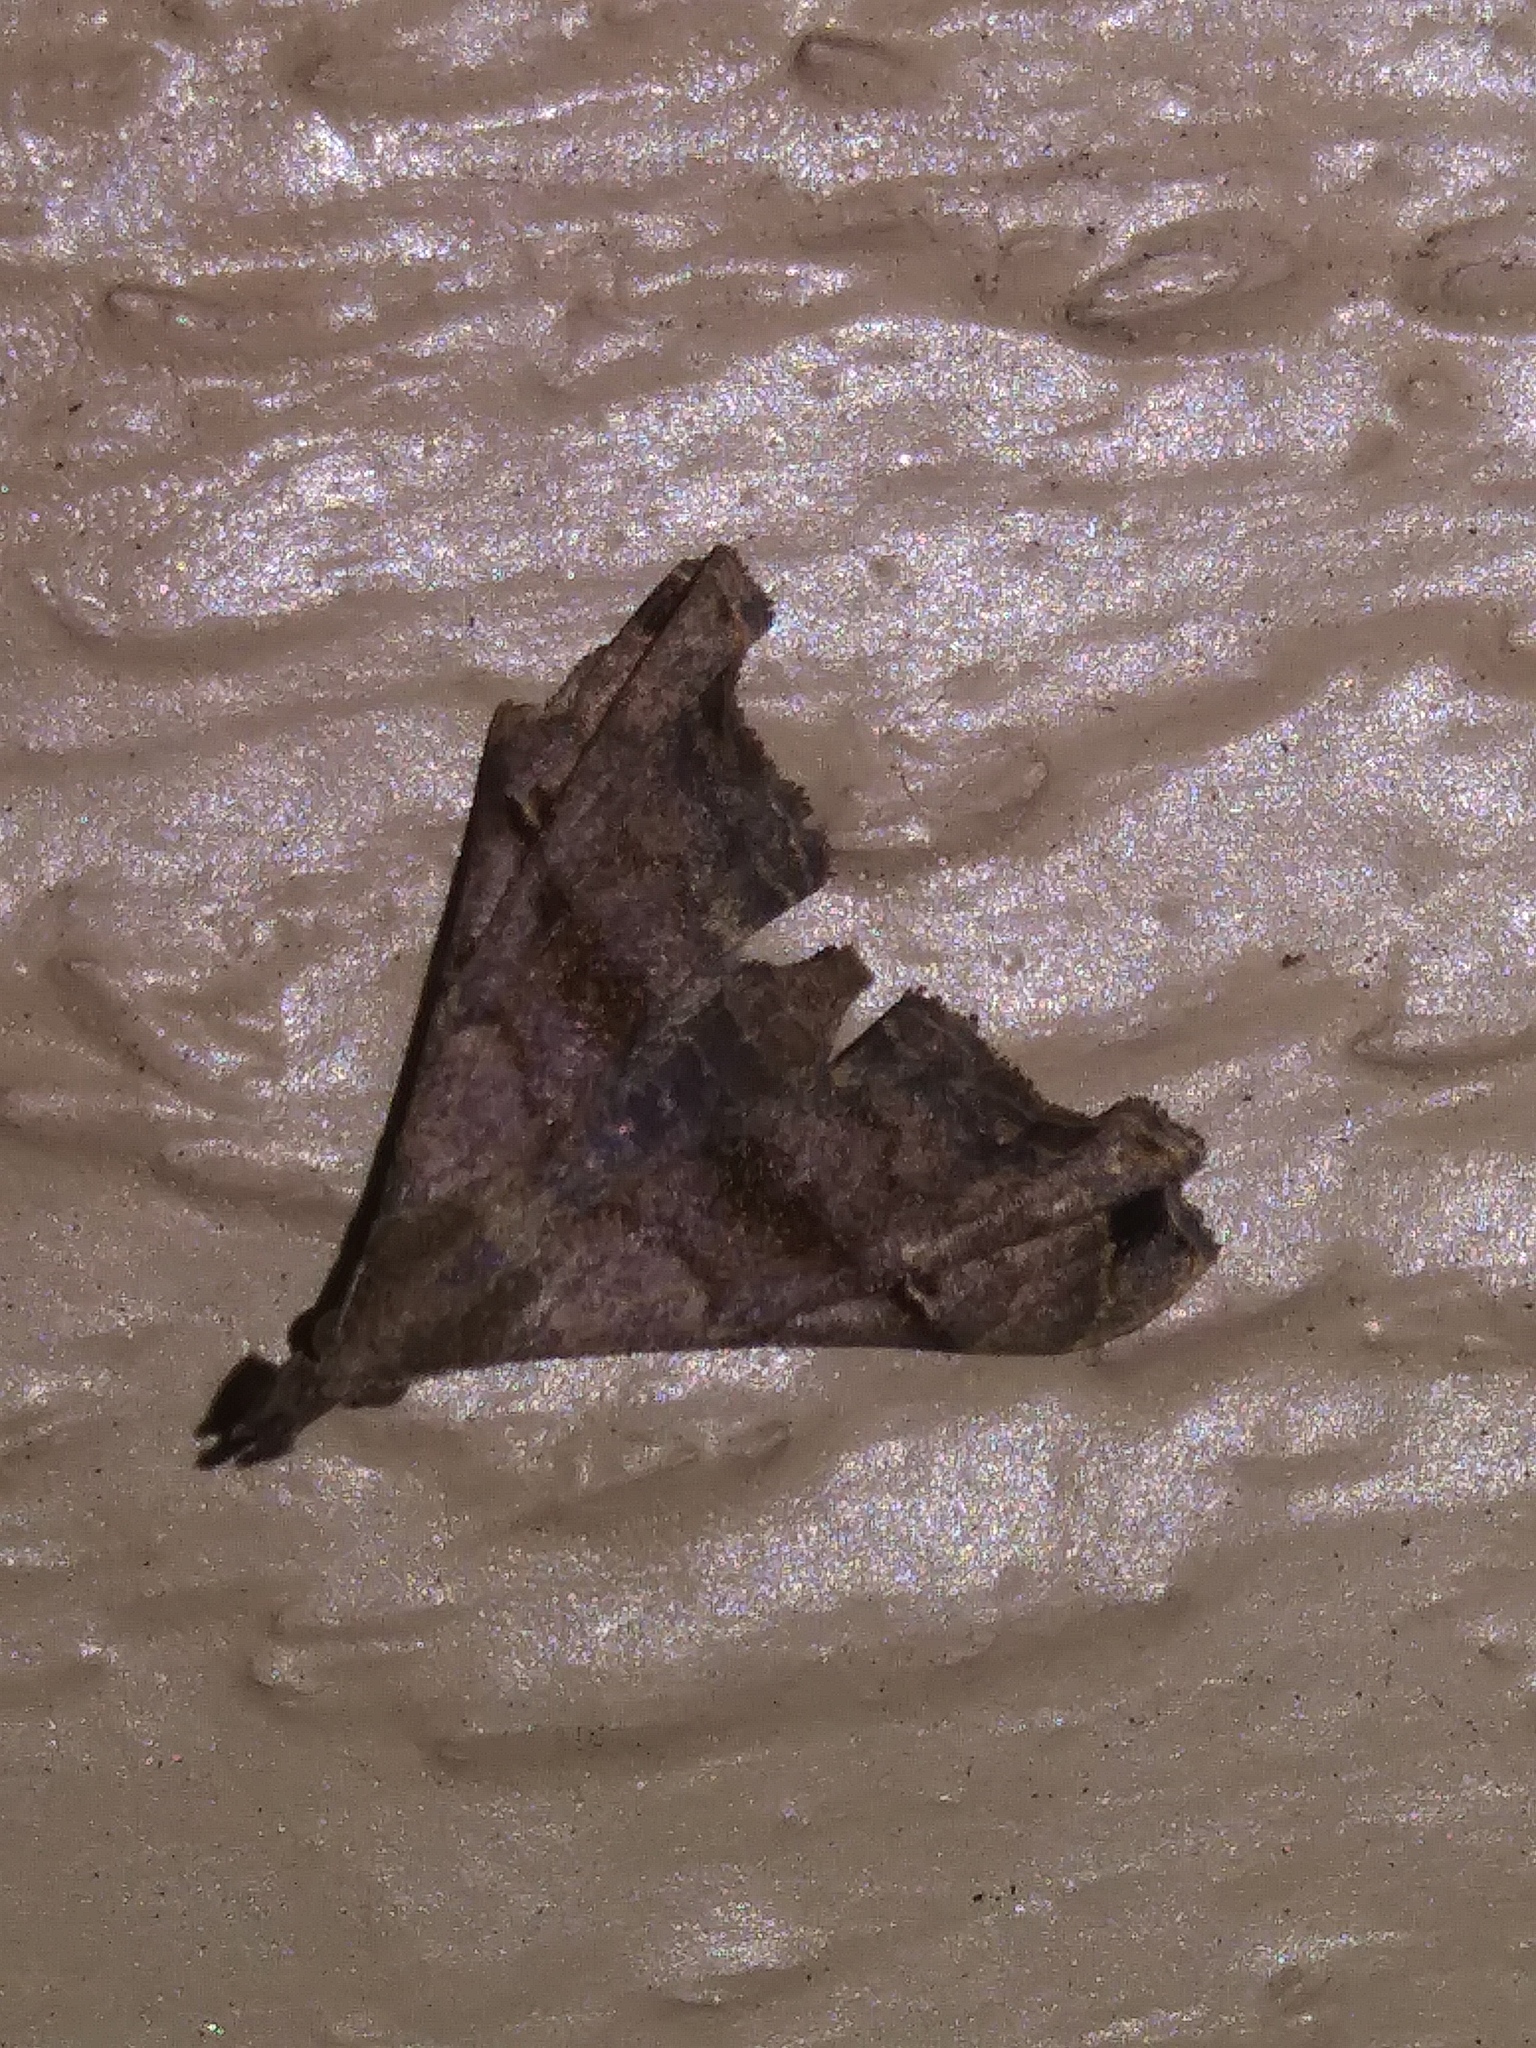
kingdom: Animalia
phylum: Arthropoda
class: Insecta
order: Lepidoptera
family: Erebidae
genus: Palthis
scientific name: Palthis asopialis
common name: Faint-spotted palthis moth
